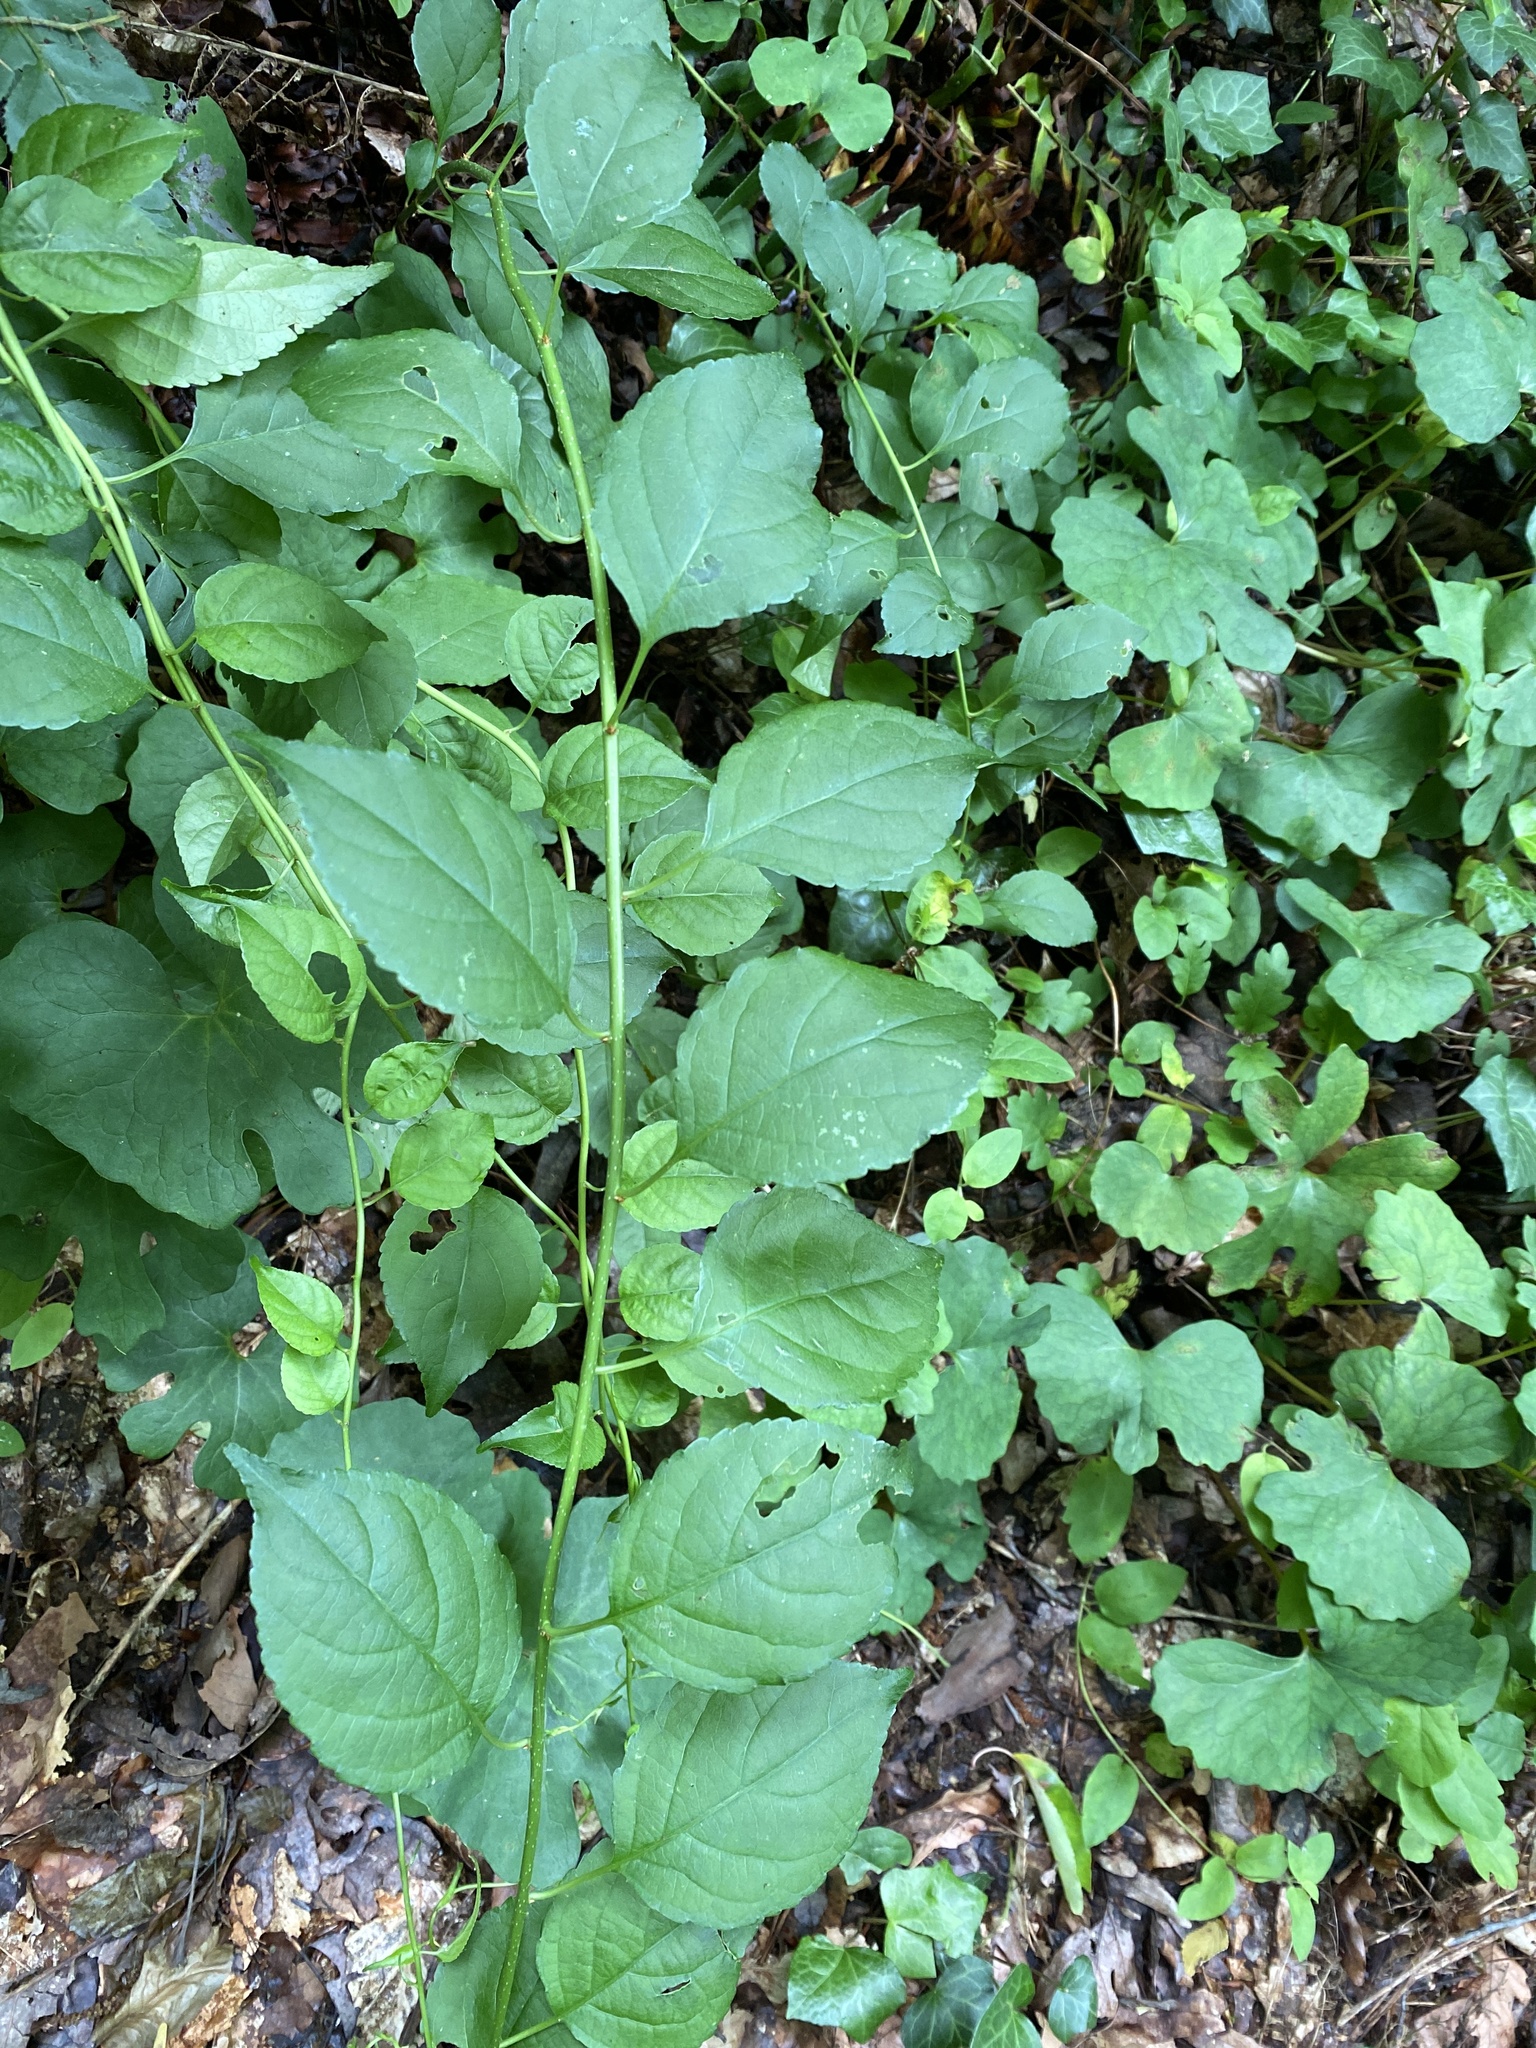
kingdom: Plantae
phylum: Tracheophyta
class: Magnoliopsida
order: Celastrales
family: Celastraceae
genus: Celastrus
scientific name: Celastrus orbiculatus
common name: Oriental bittersweet
